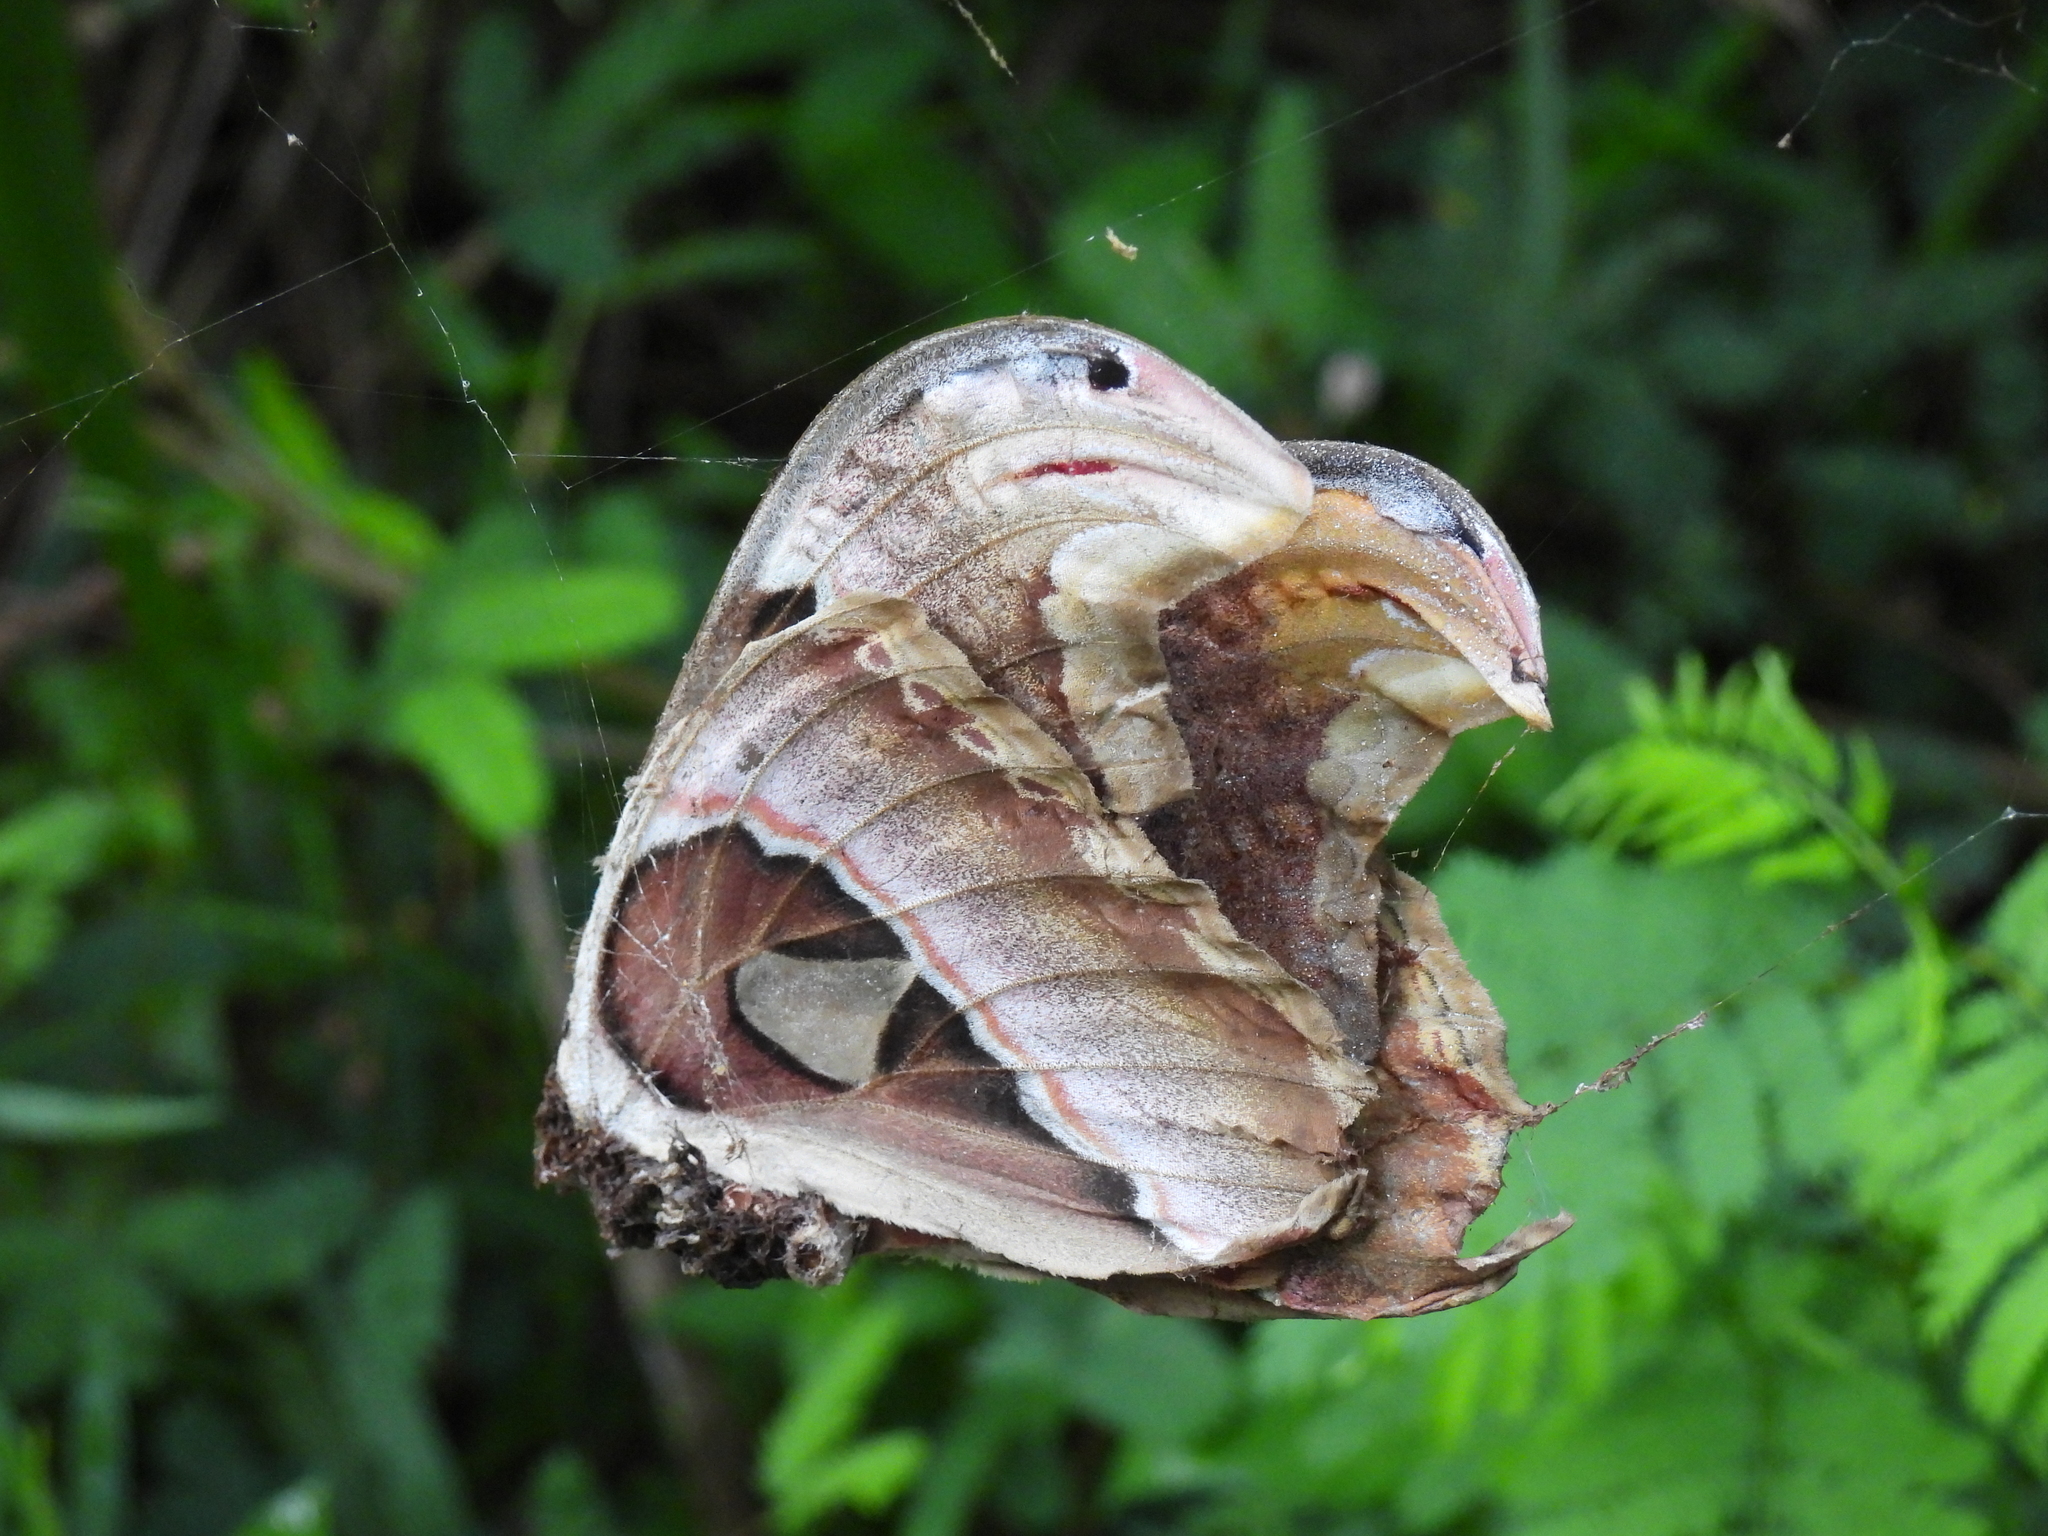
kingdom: Animalia
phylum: Arthropoda
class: Insecta
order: Lepidoptera
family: Saturniidae
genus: Attacus
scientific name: Attacus atlas
